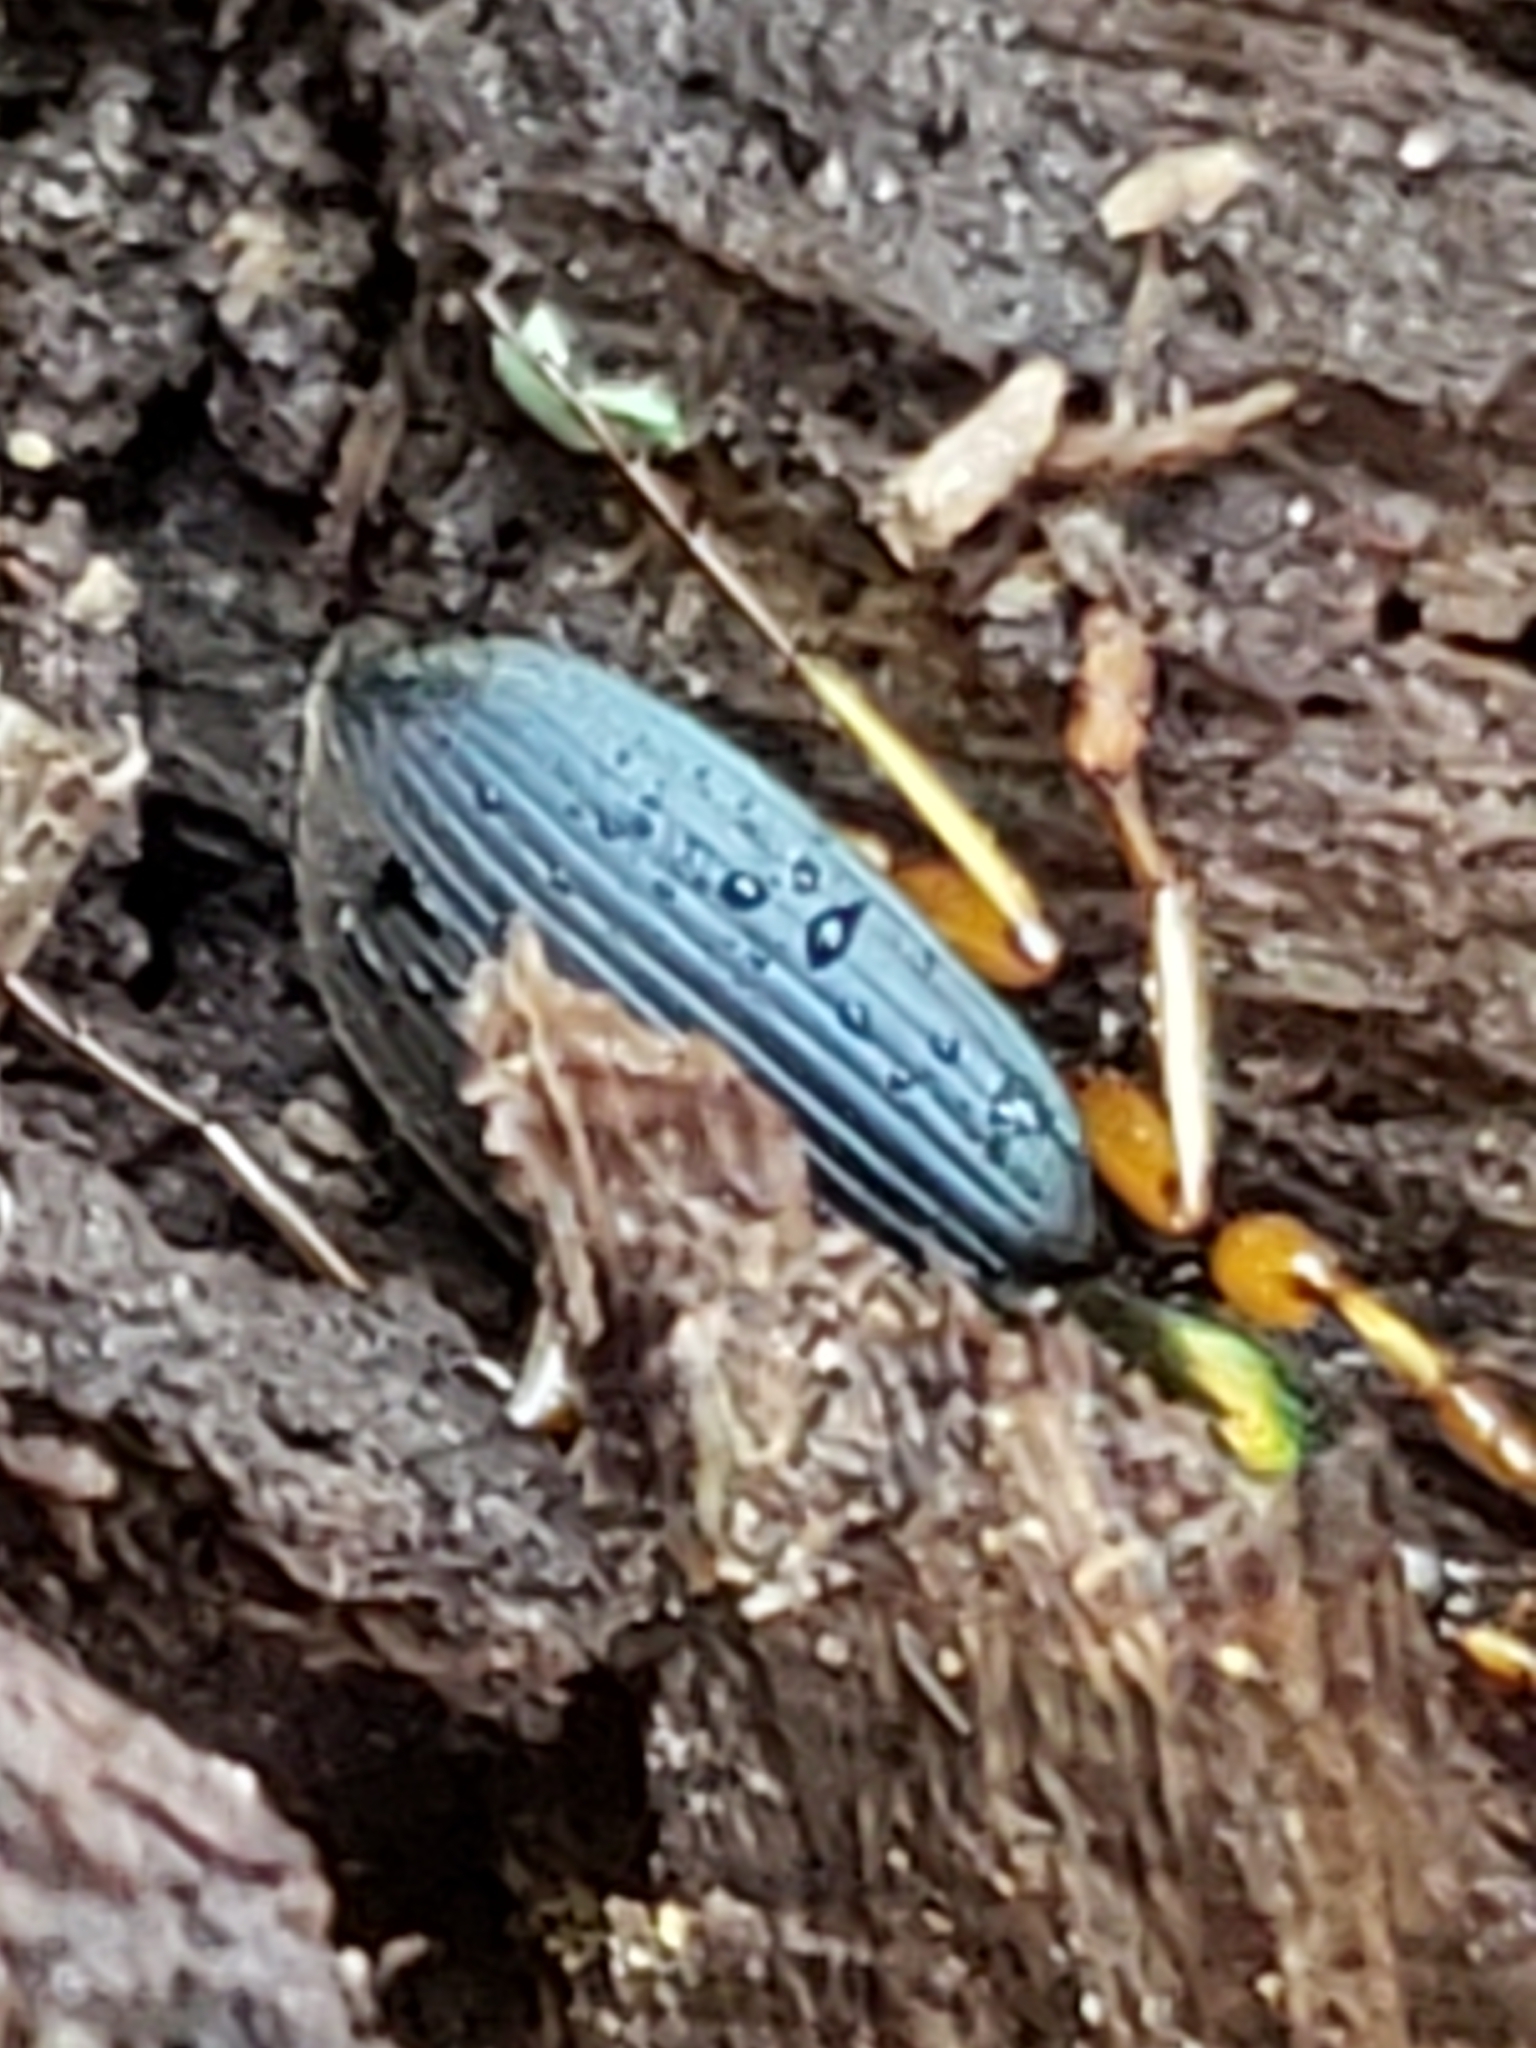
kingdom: Animalia
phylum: Arthropoda
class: Insecta
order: Coleoptera
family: Carabidae
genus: Chlaenius
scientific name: Chlaenius aestivus
